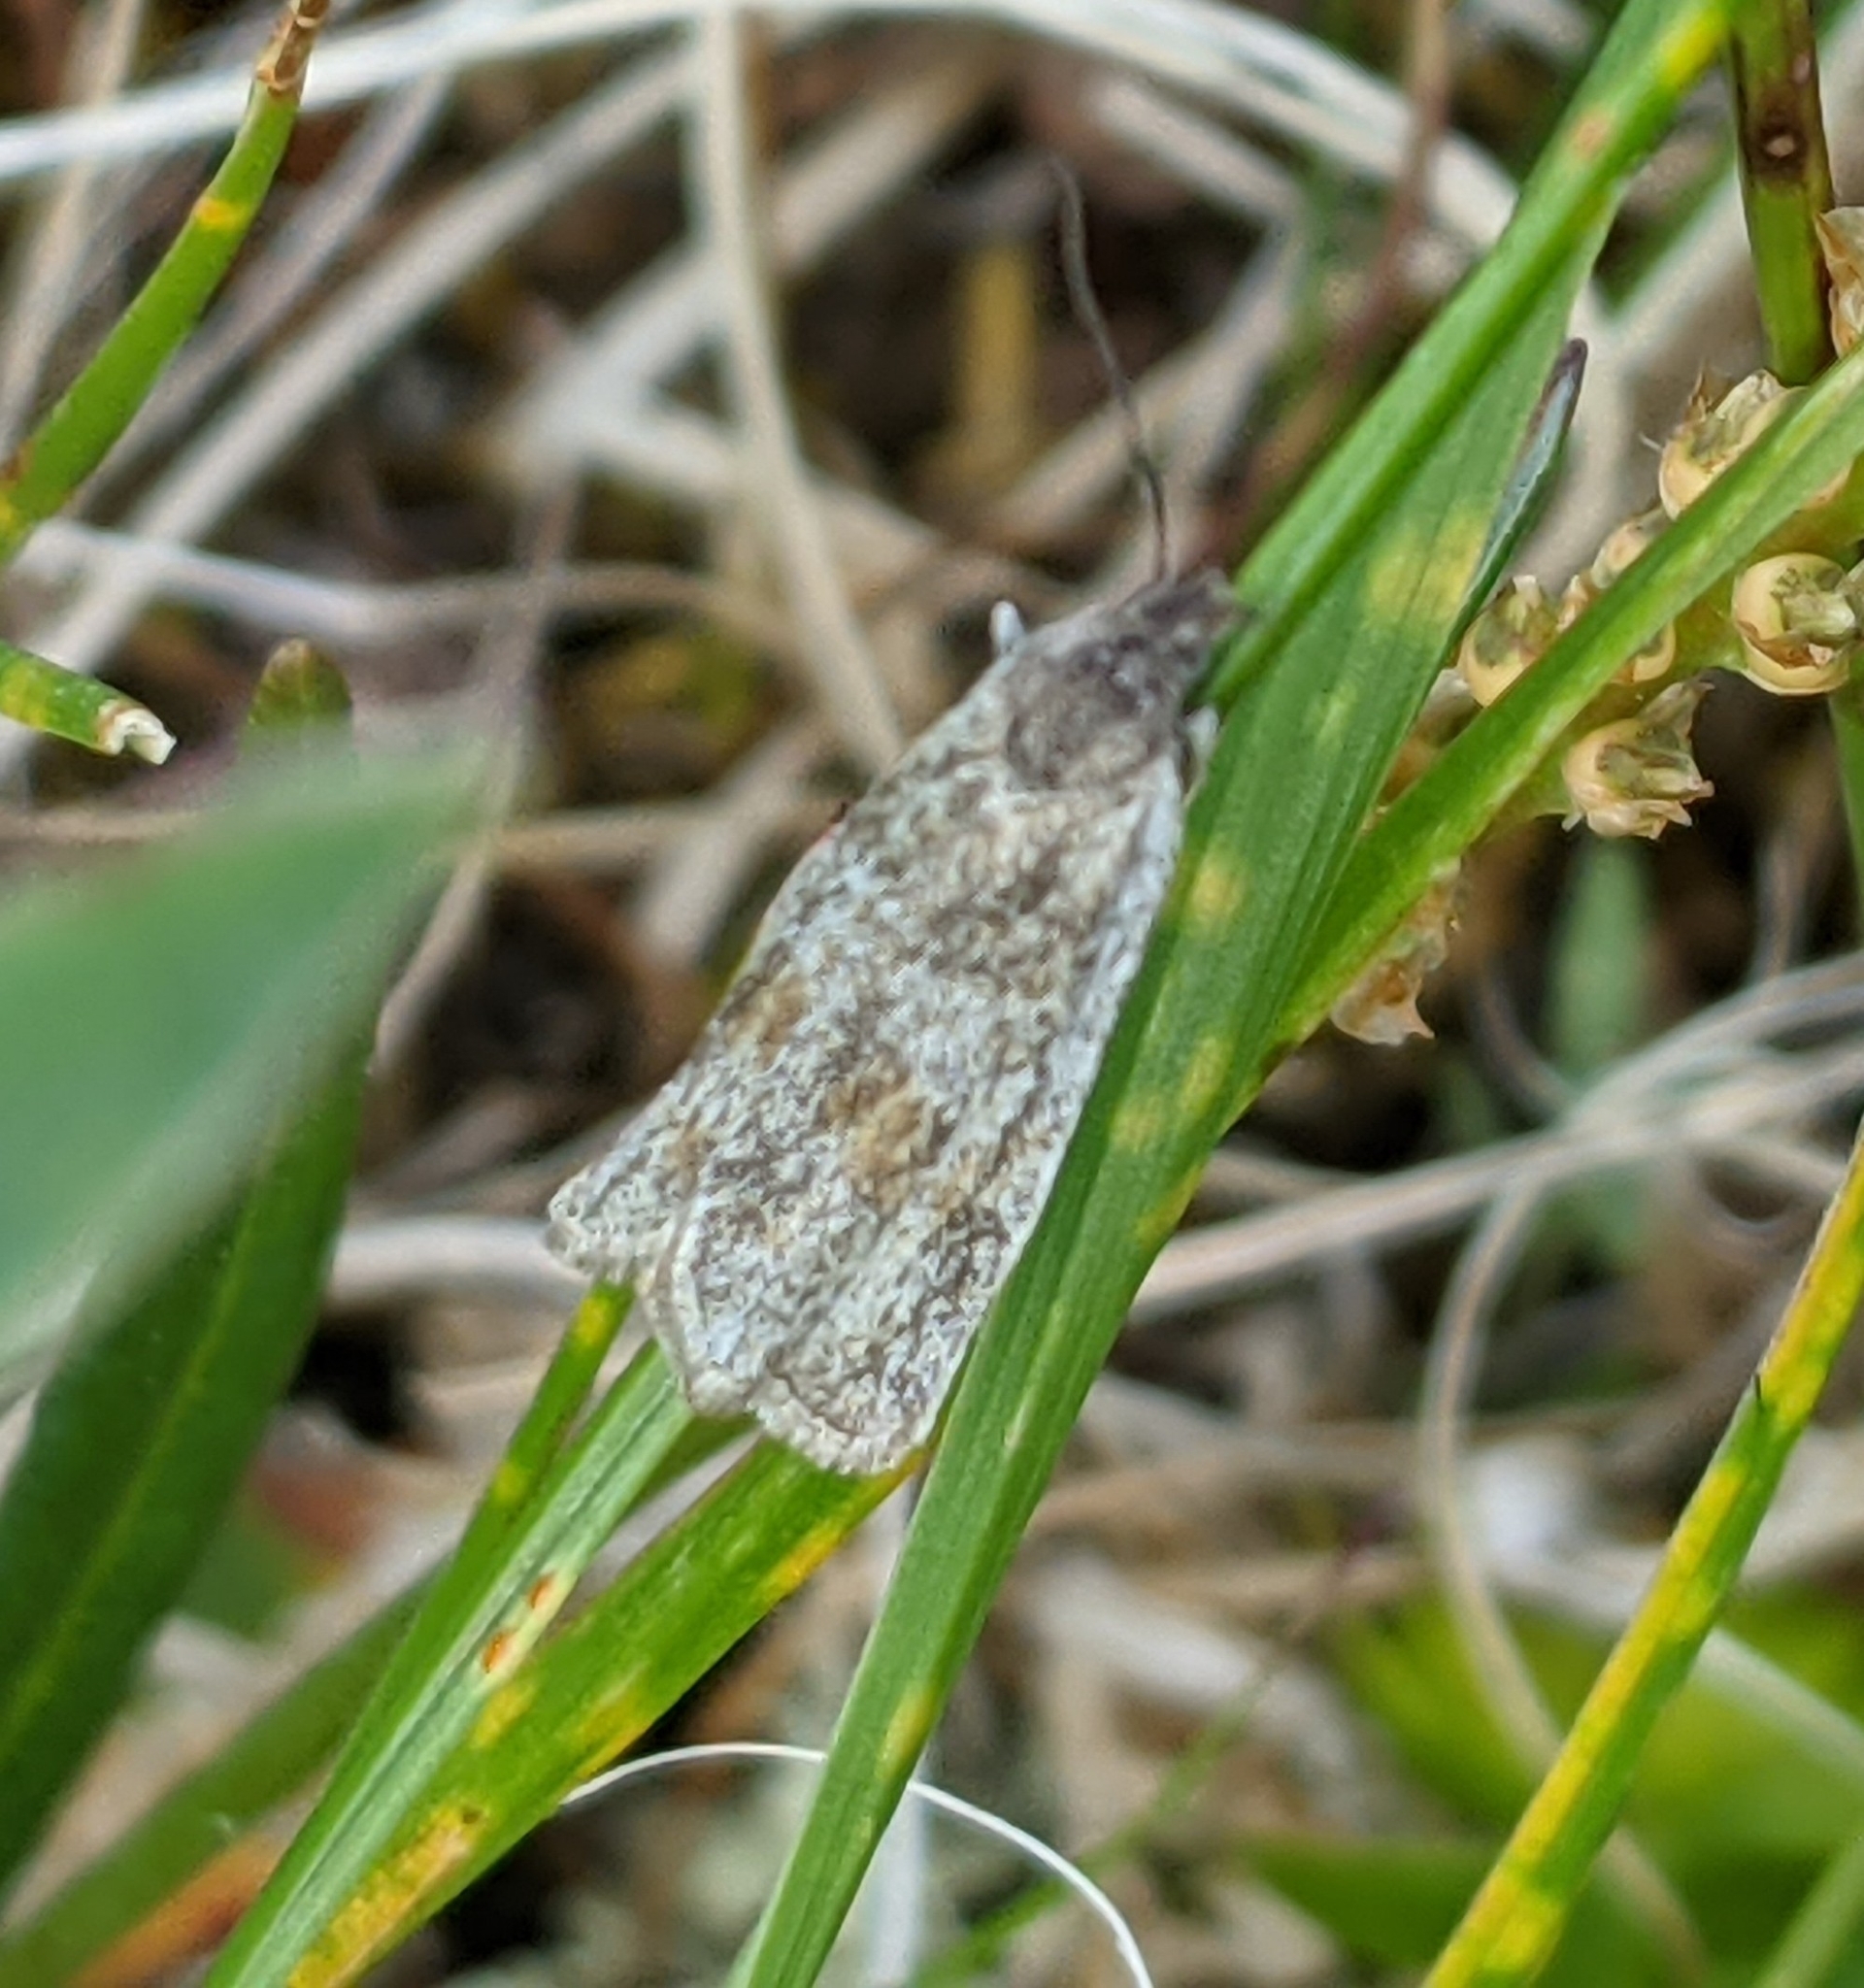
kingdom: Animalia
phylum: Arthropoda
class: Insecta
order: Lepidoptera
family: Tortricidae
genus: Hystrichophora
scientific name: Hystrichophora asphodelana
